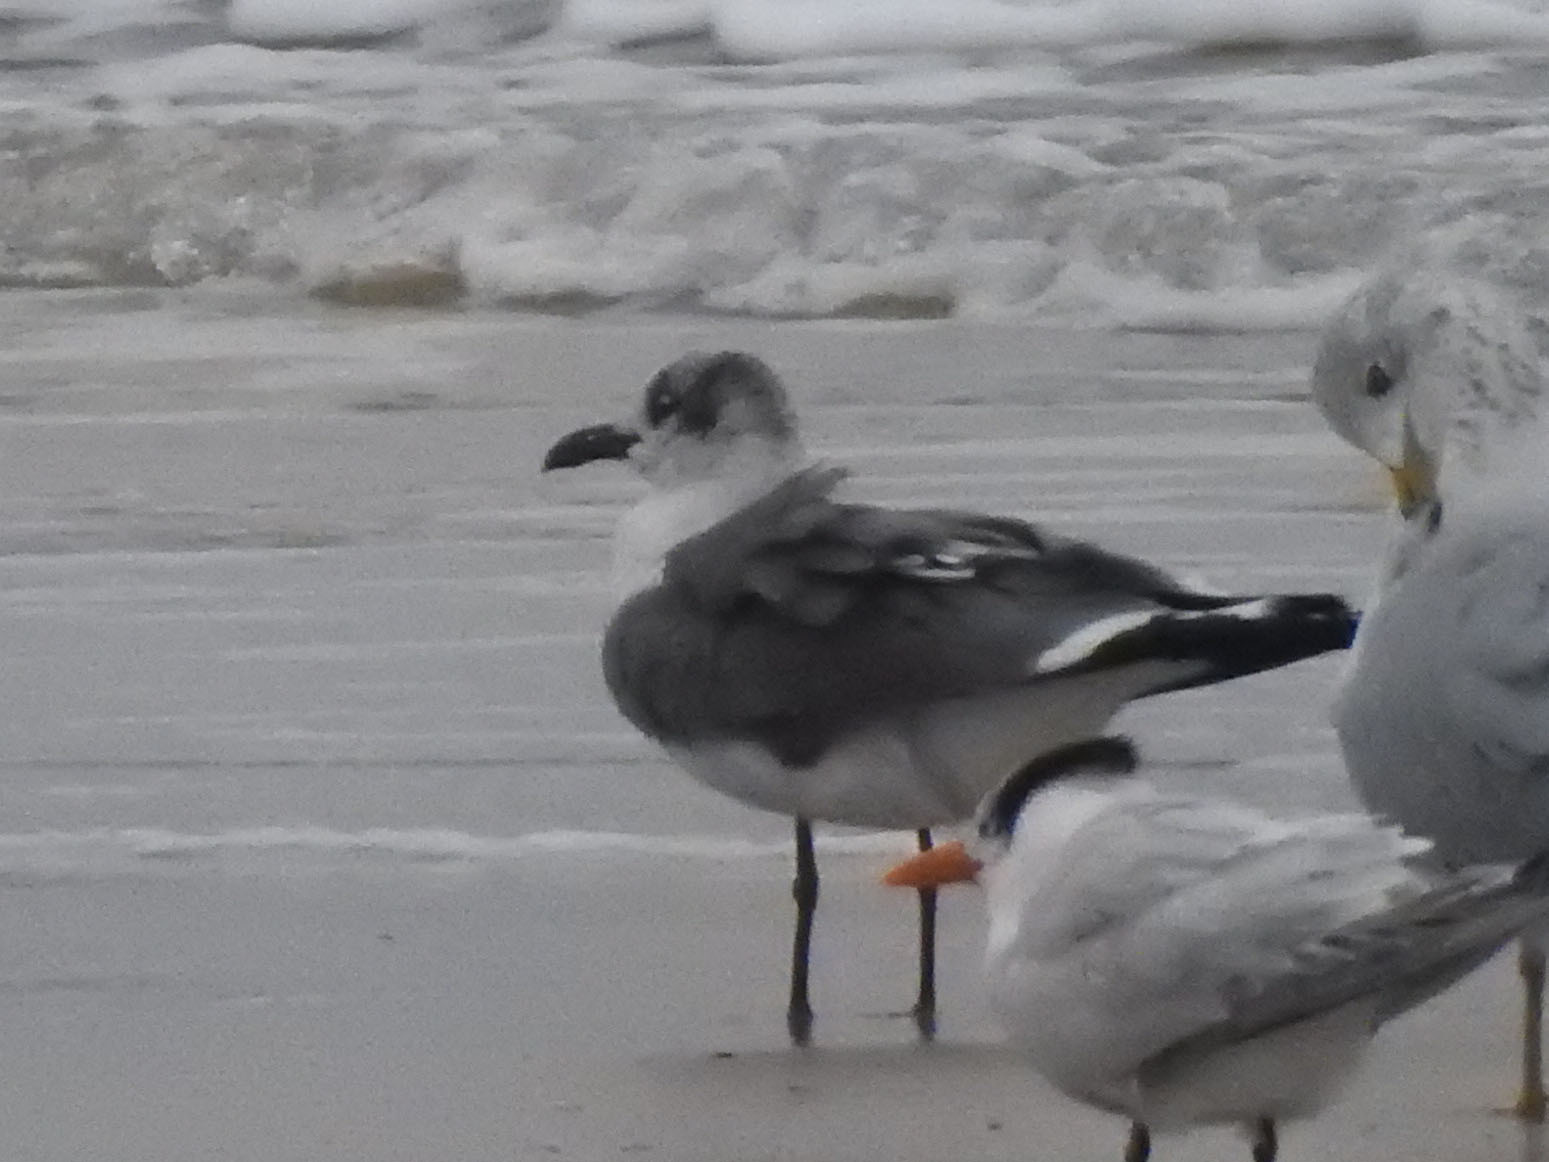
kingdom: Animalia
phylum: Chordata
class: Aves
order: Charadriiformes
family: Laridae
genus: Leucophaeus
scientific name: Leucophaeus atricilla
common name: Laughing gull
